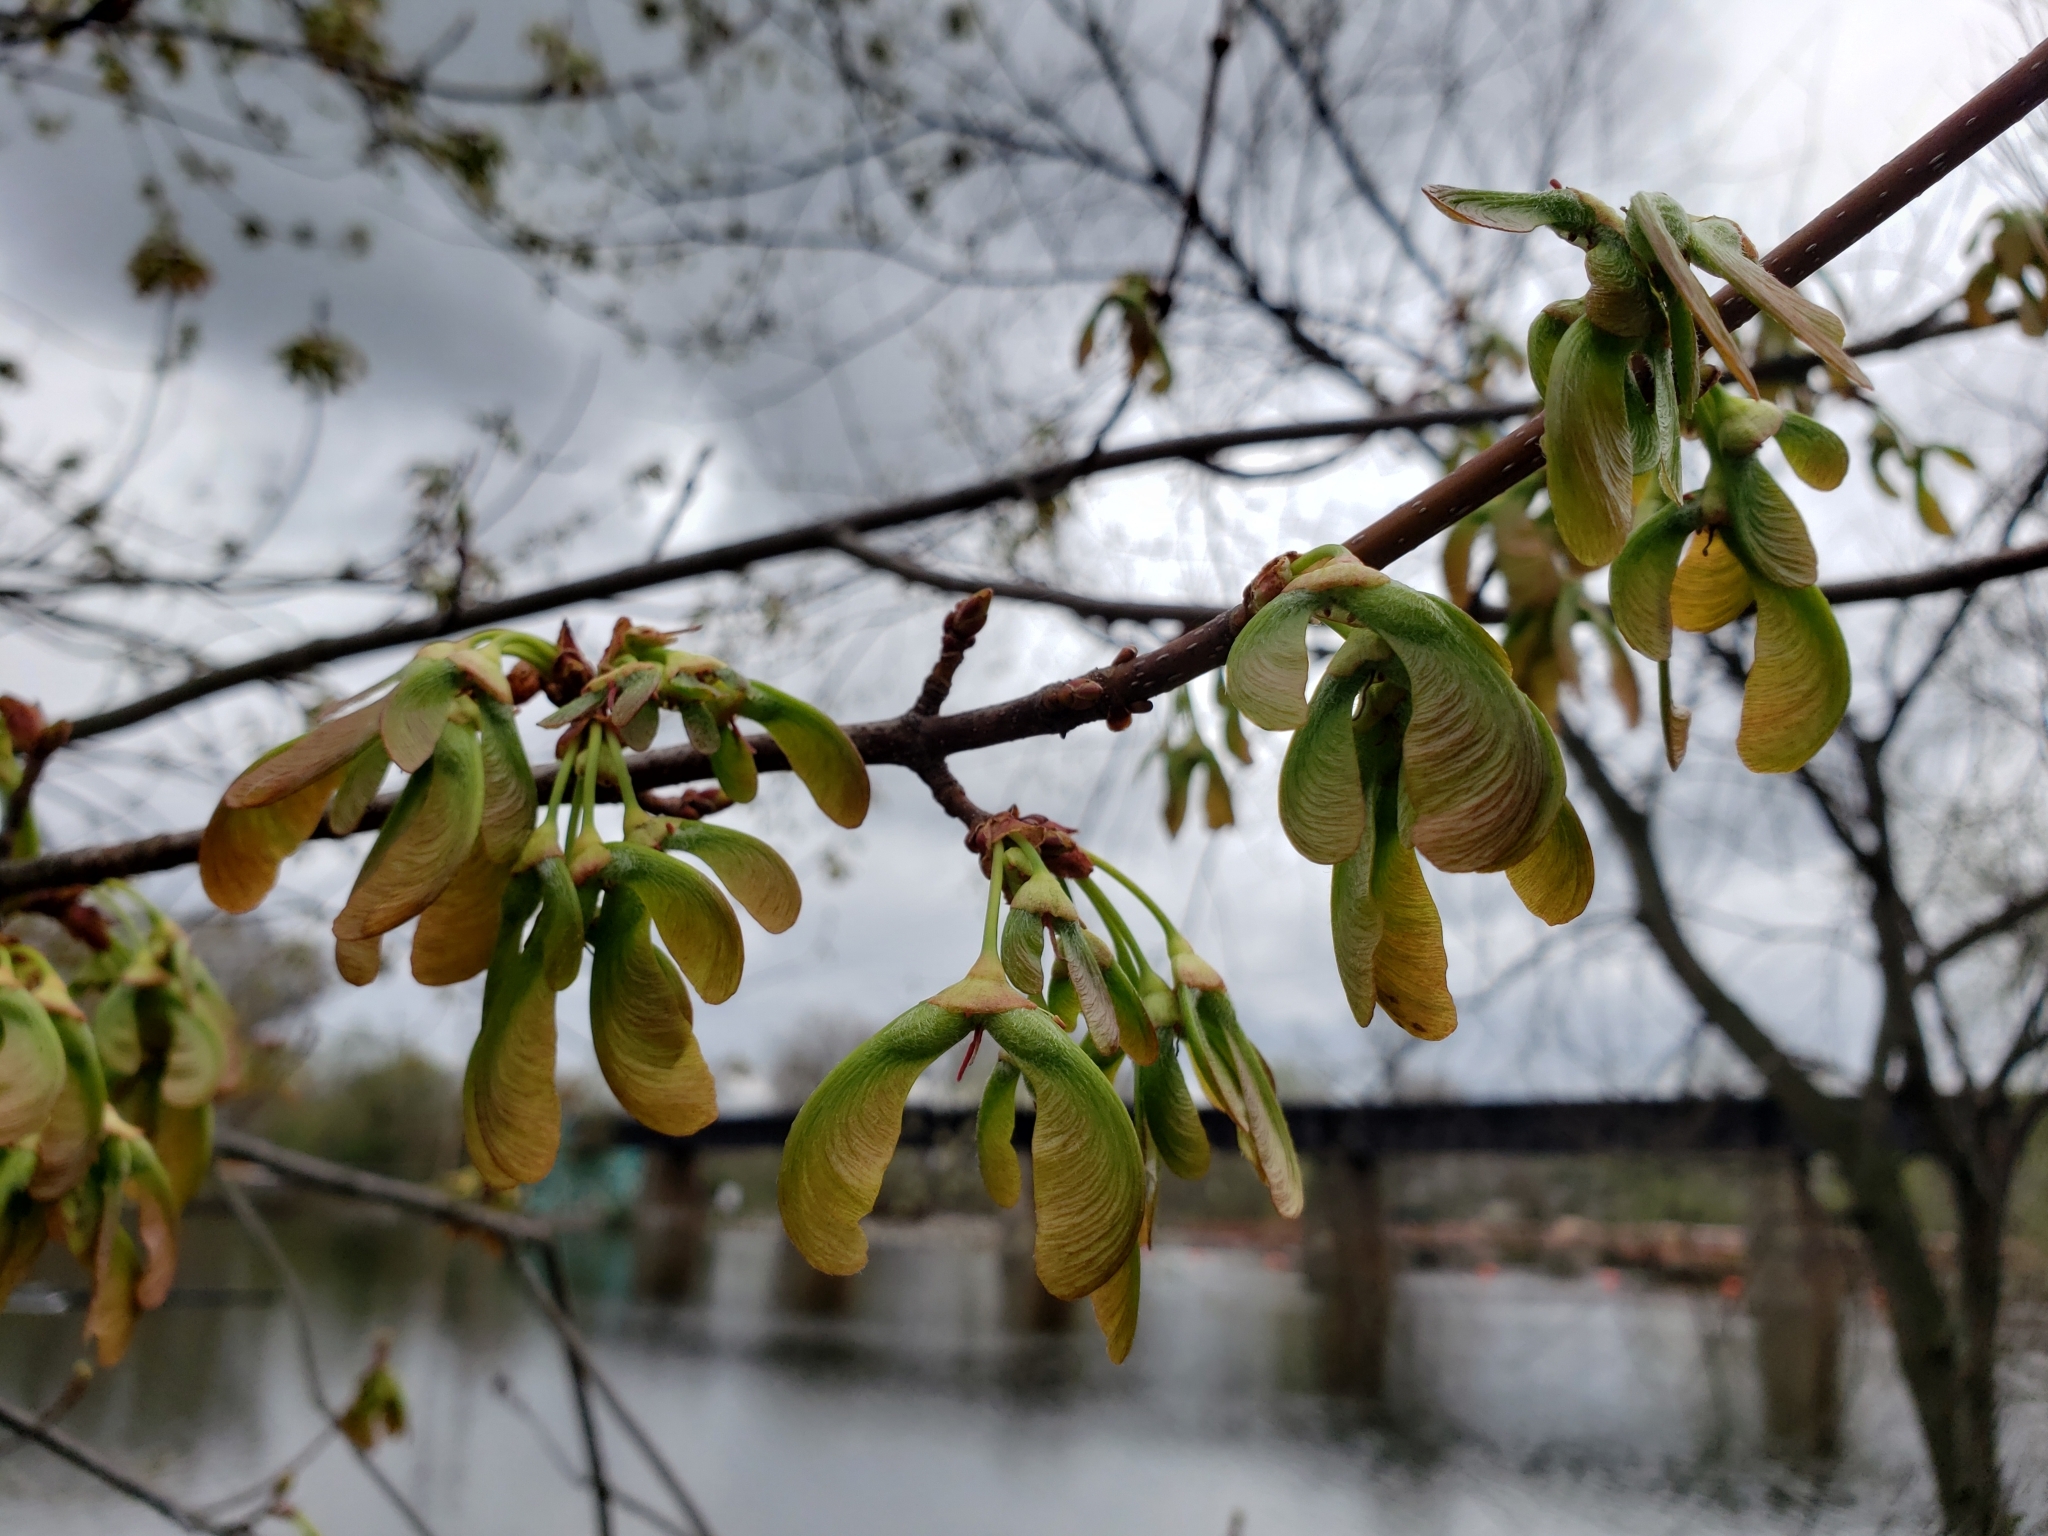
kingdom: Plantae
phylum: Tracheophyta
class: Magnoliopsida
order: Sapindales
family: Sapindaceae
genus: Acer
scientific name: Acer platanoides
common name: Norway maple
